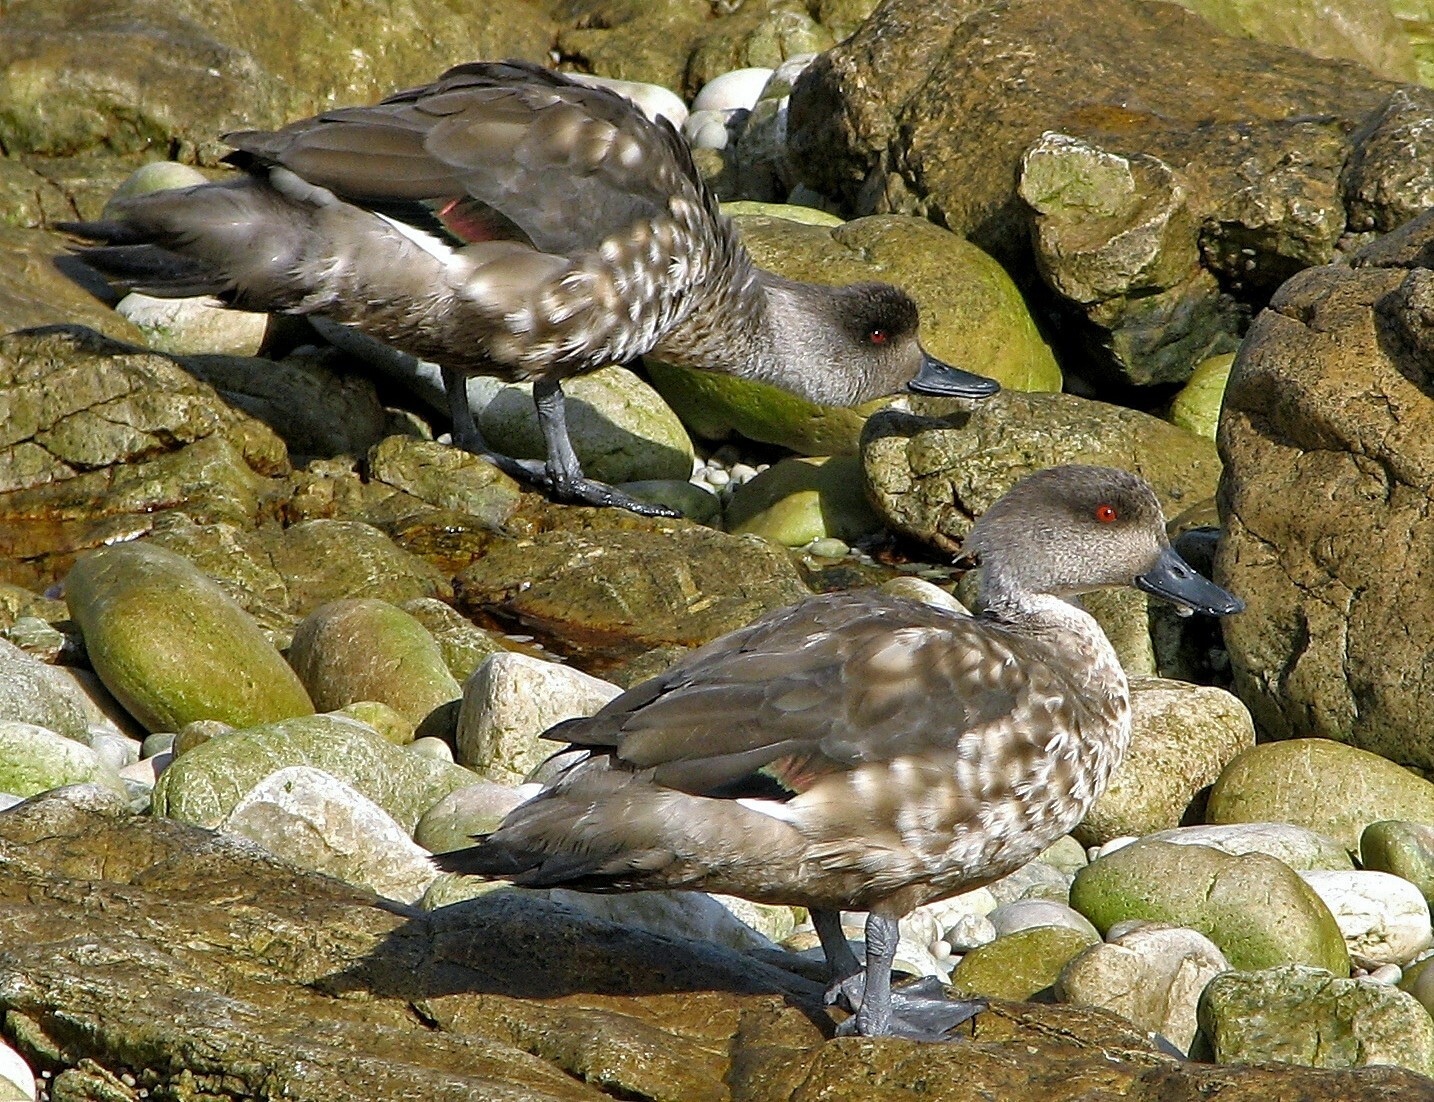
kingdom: Animalia
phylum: Chordata
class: Aves
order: Anseriformes
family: Anatidae
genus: Lophonetta
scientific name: Lophonetta specularioides
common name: Crested duck
